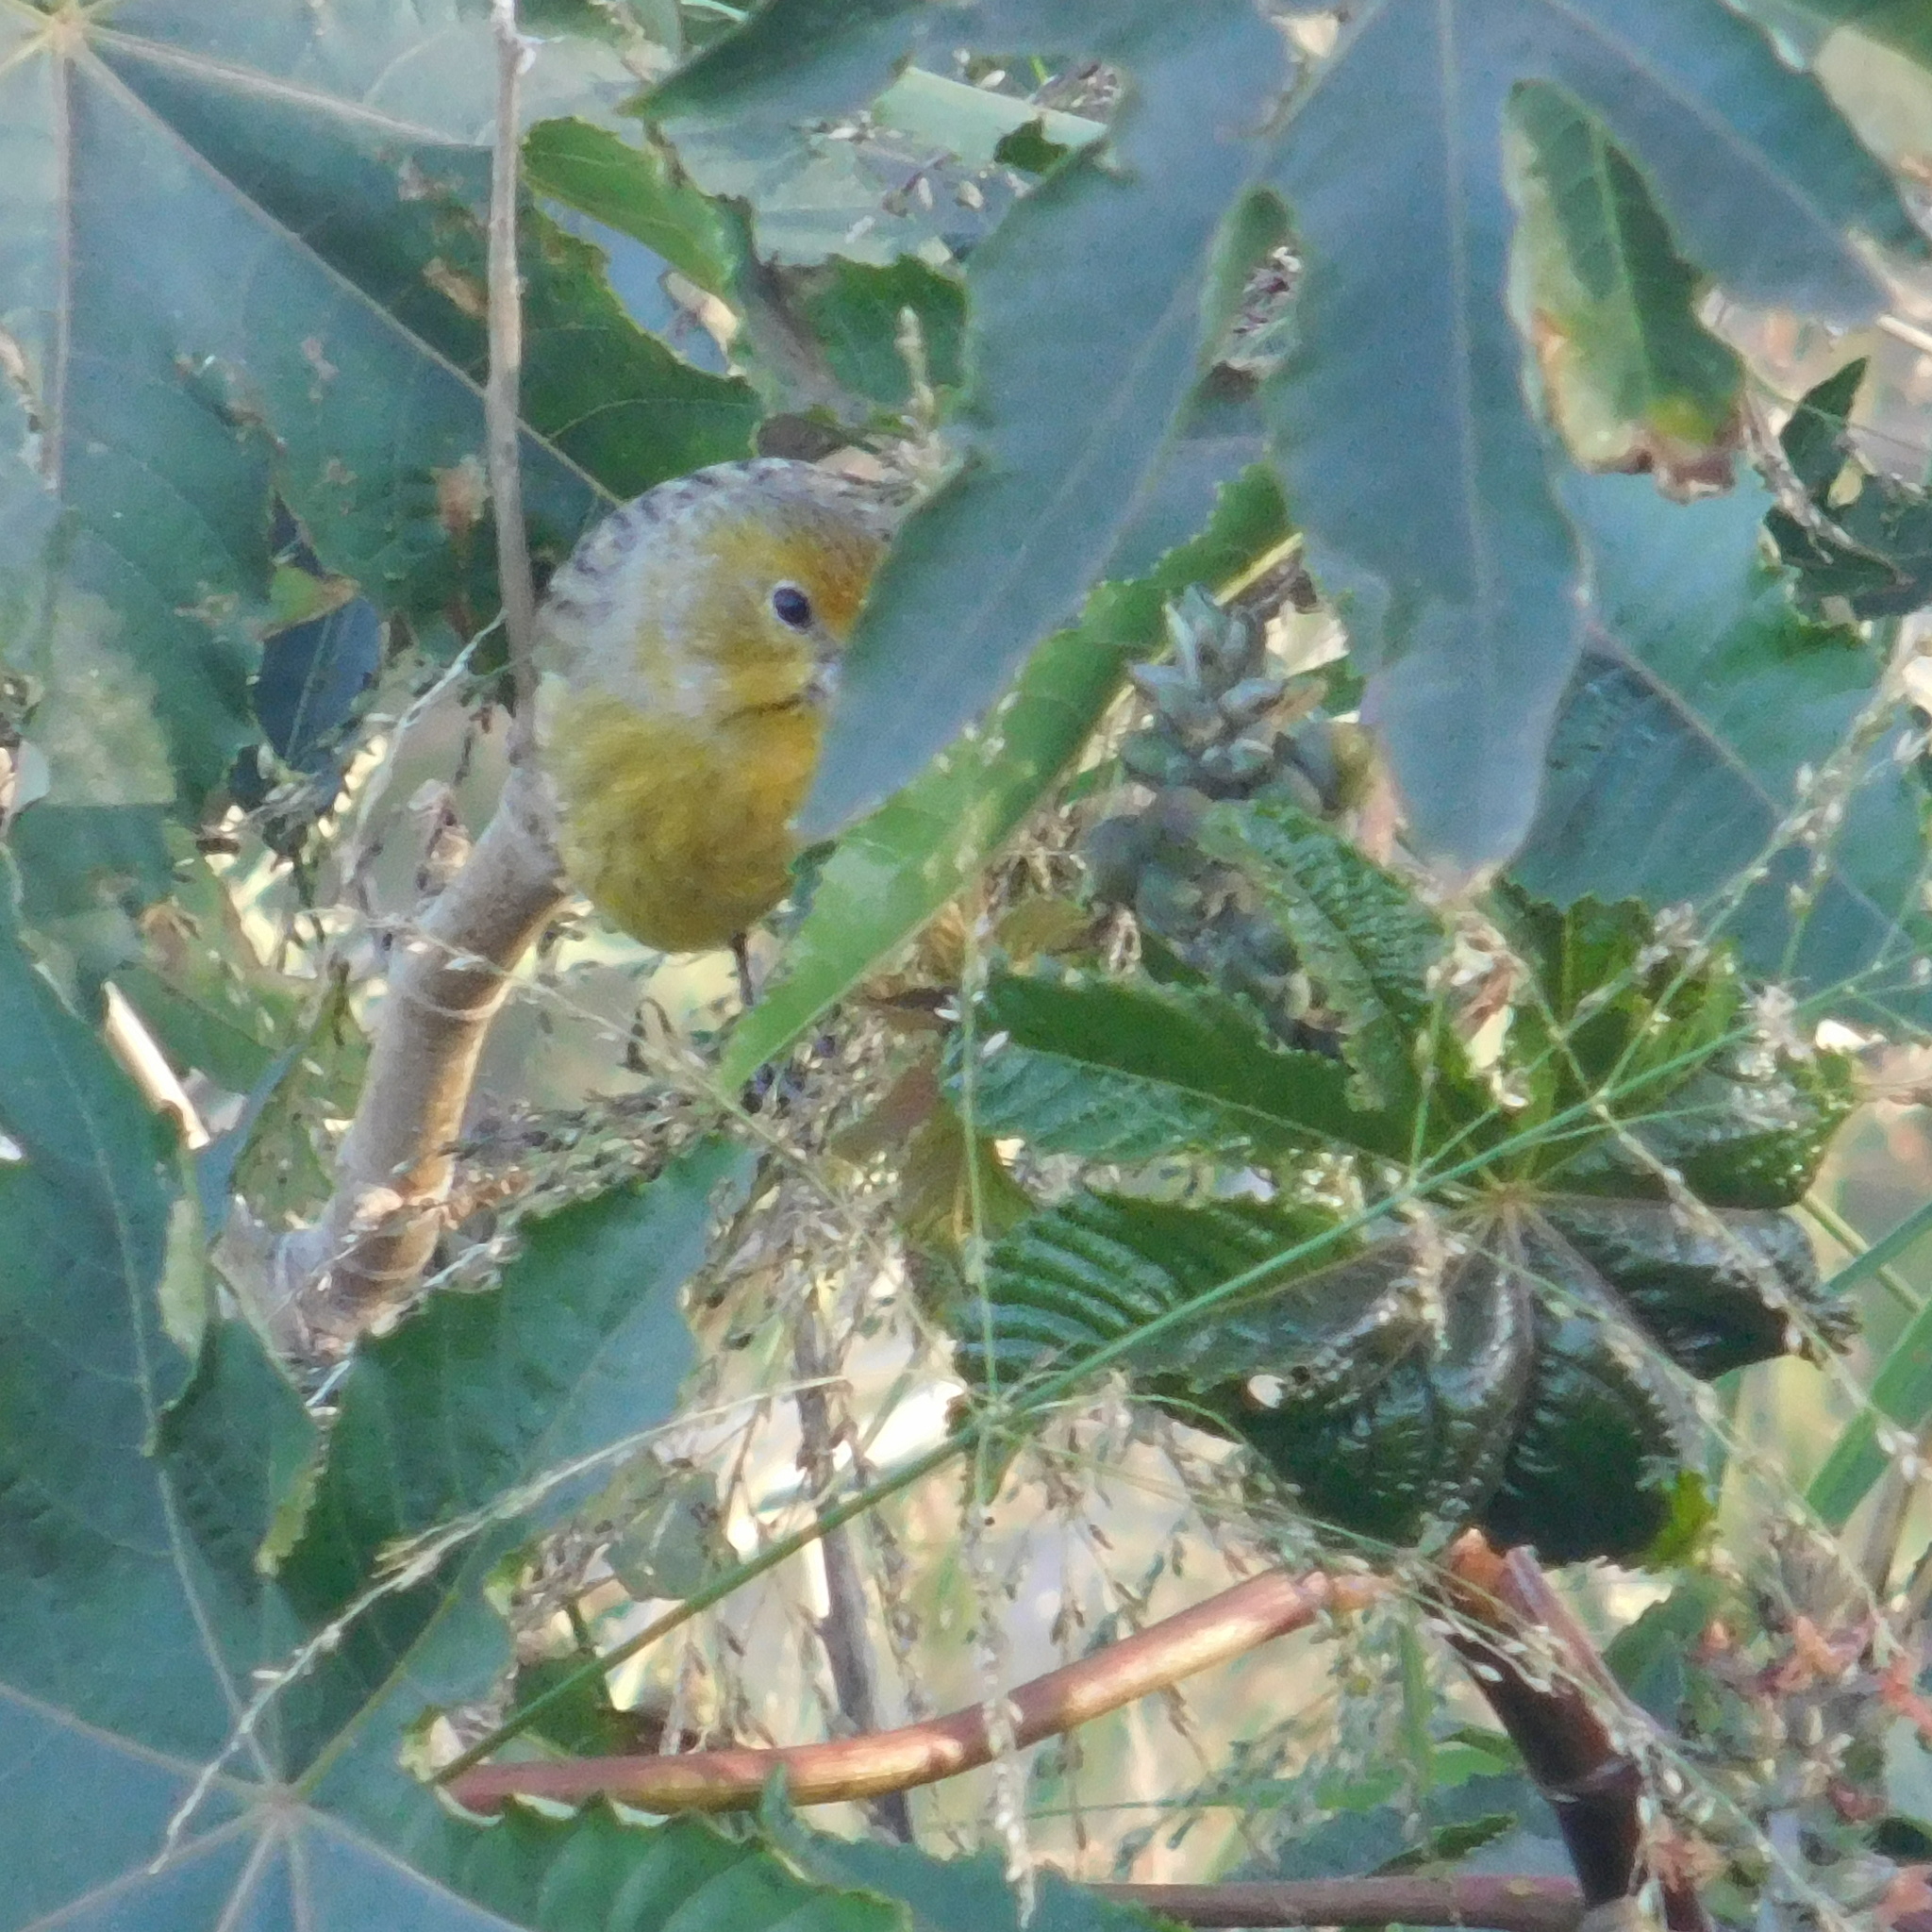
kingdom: Animalia
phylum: Chordata
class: Aves
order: Passeriformes
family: Thraupidae
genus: Sicalis
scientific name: Sicalis flaveola
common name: Saffron finch
